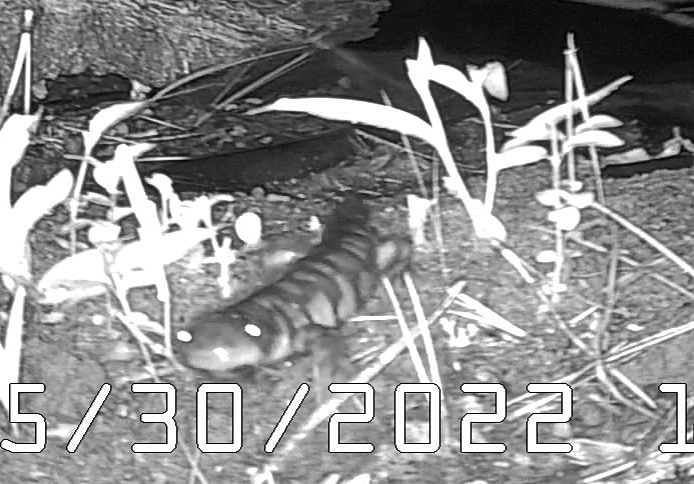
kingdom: Animalia
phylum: Chordata
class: Amphibia
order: Caudata
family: Ambystomatidae
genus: Ambystoma
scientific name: Ambystoma mavortium
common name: Western tiger salamander
